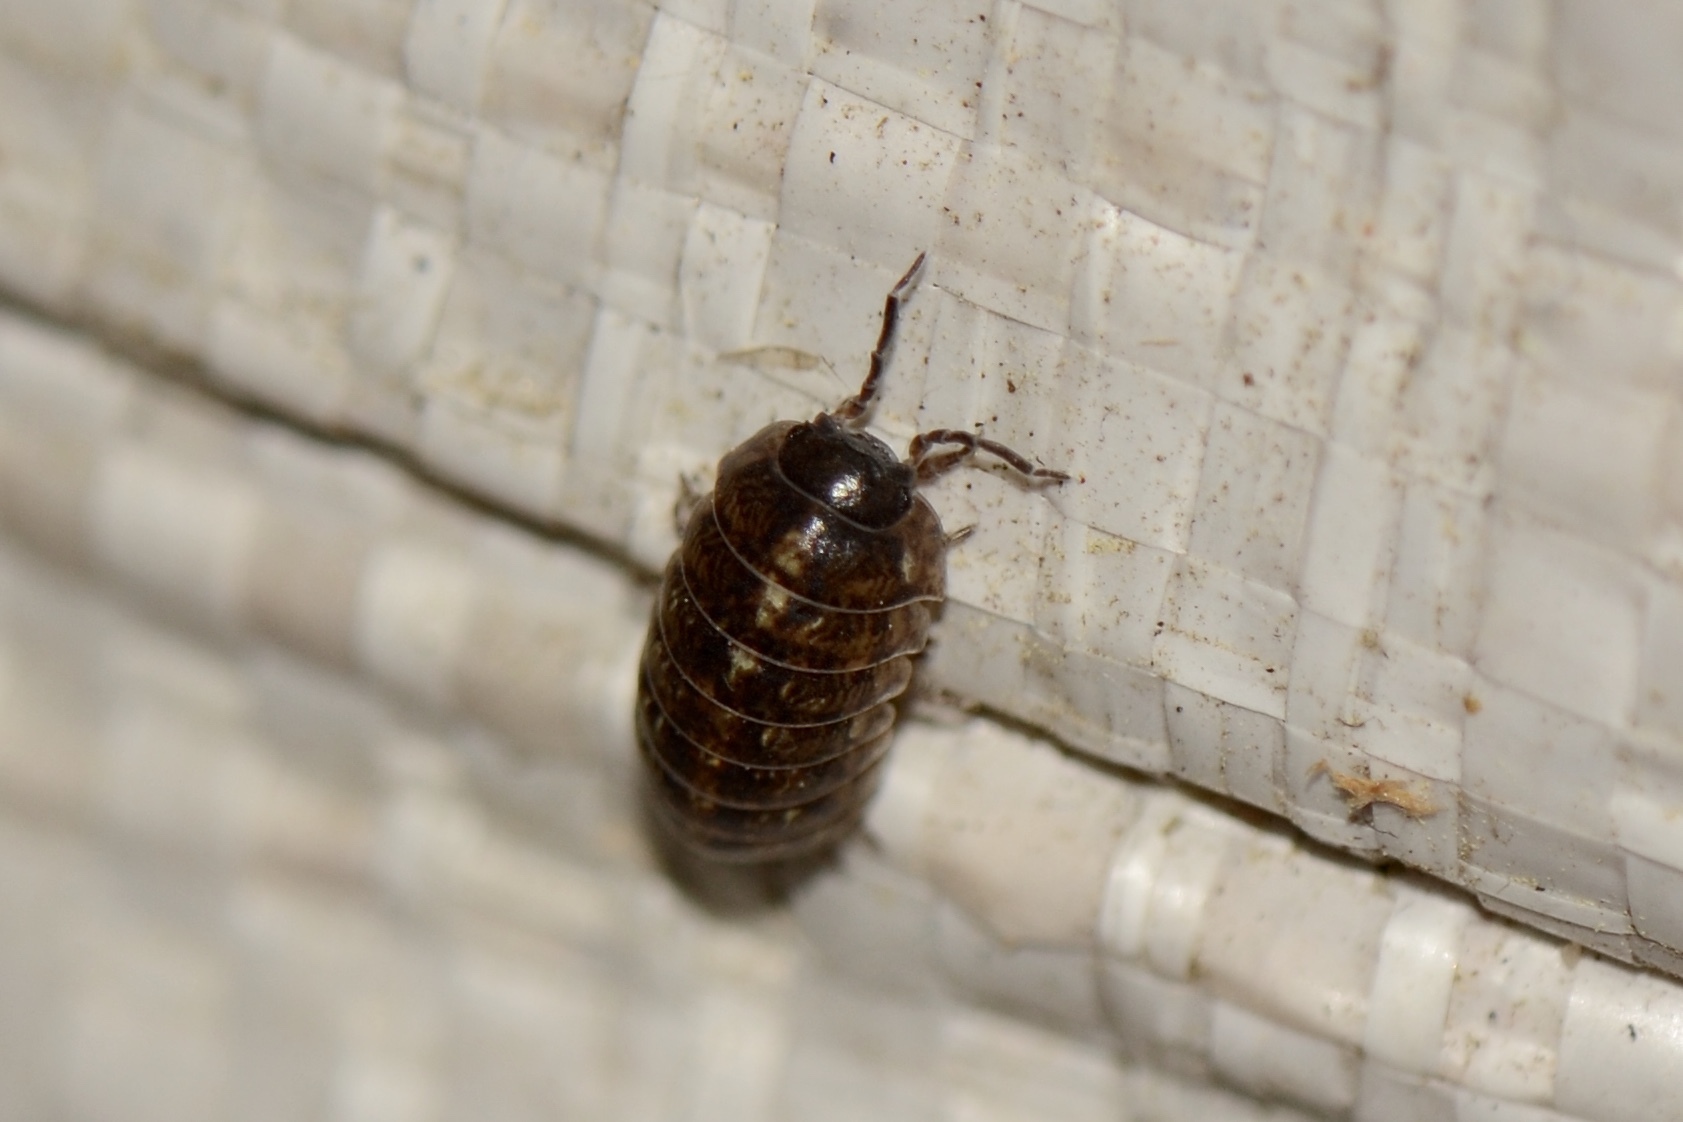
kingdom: Animalia
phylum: Arthropoda
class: Malacostraca
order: Isopoda
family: Armadillidiidae
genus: Armadillidium
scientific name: Armadillidium vulgare
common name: Common pill woodlouse
